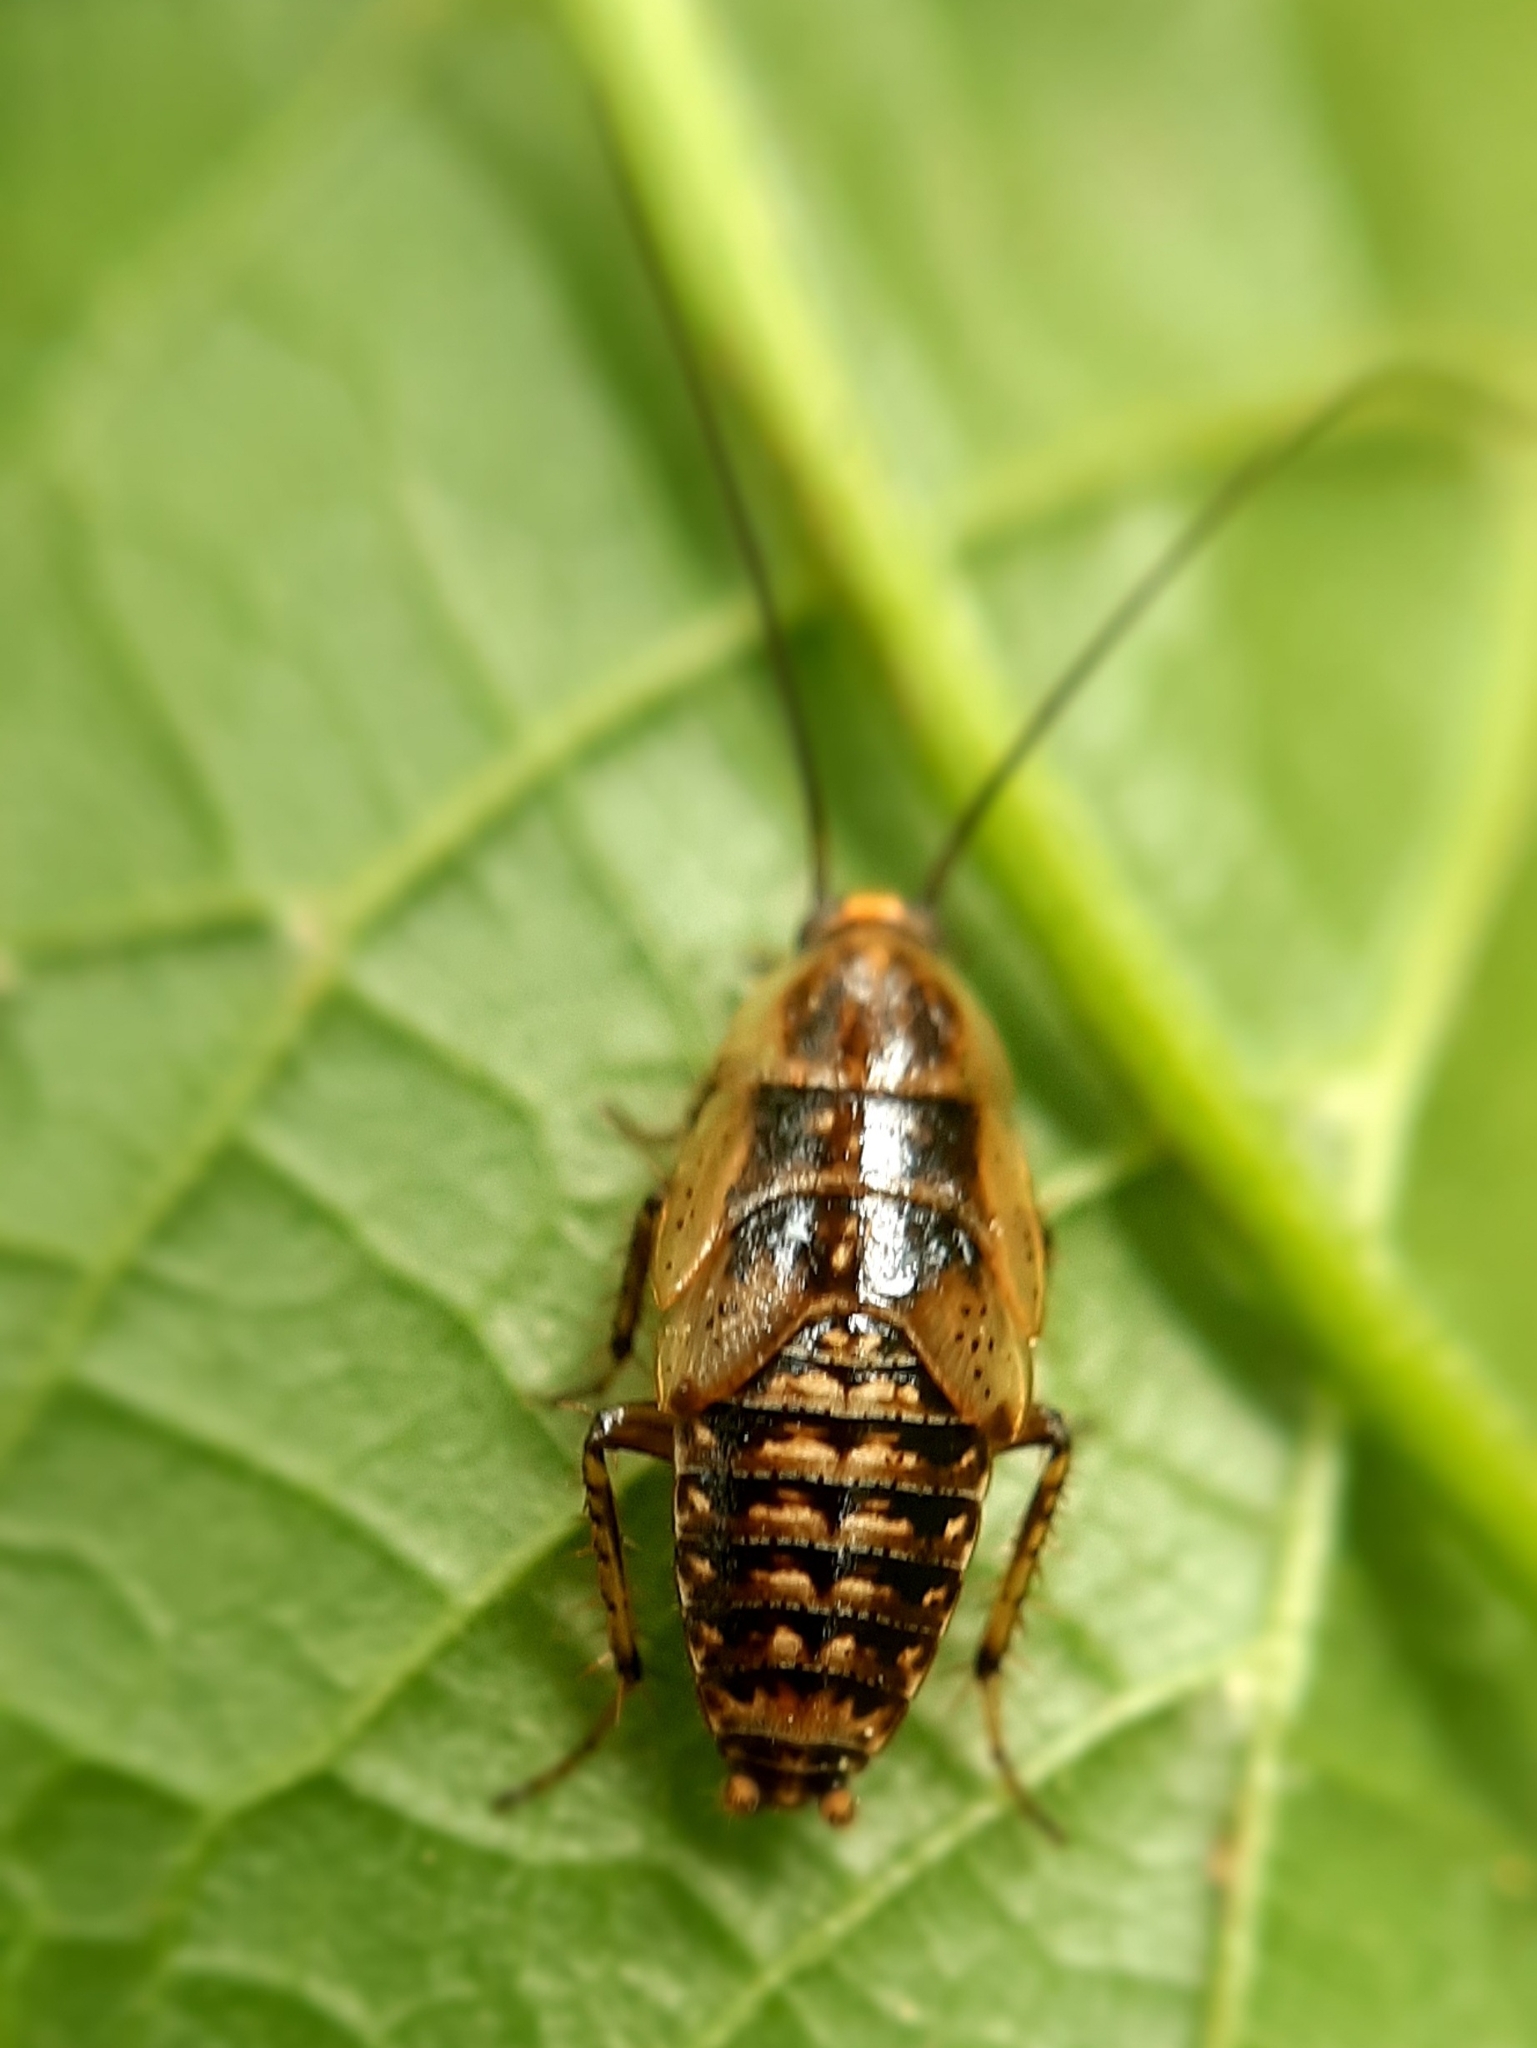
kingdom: Animalia
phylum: Arthropoda
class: Insecta
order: Blattodea
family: Ectobiidae
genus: Ectobius
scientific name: Ectobius
